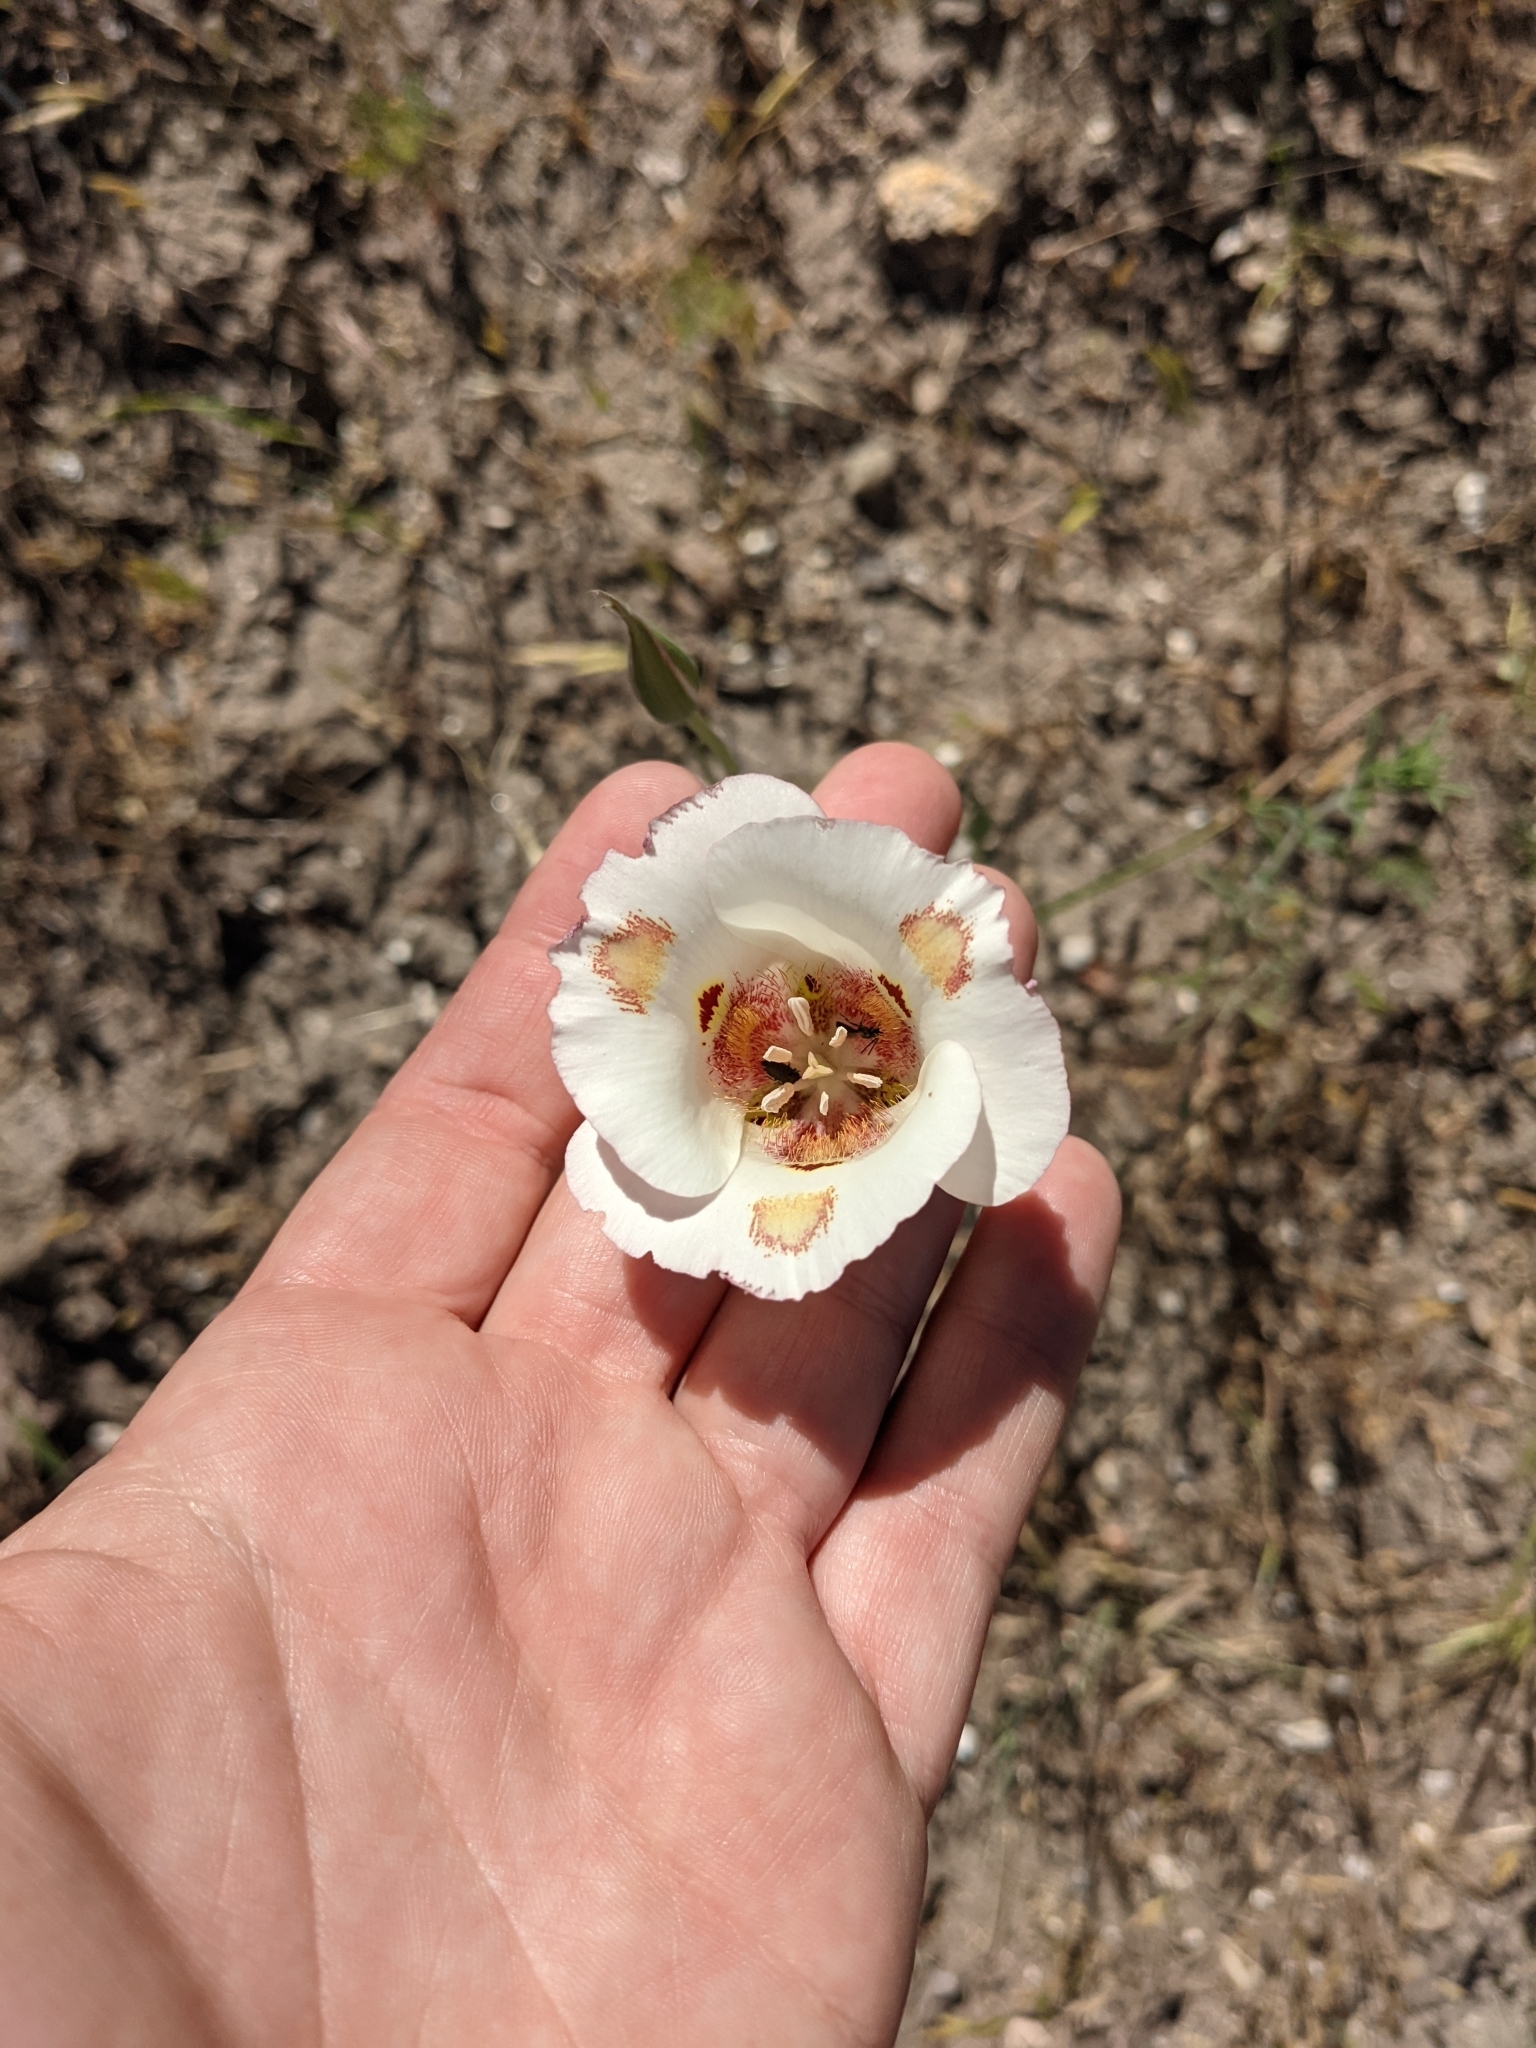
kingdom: Plantae
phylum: Tracheophyta
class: Liliopsida
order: Liliales
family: Liliaceae
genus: Calochortus
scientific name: Calochortus venustus
